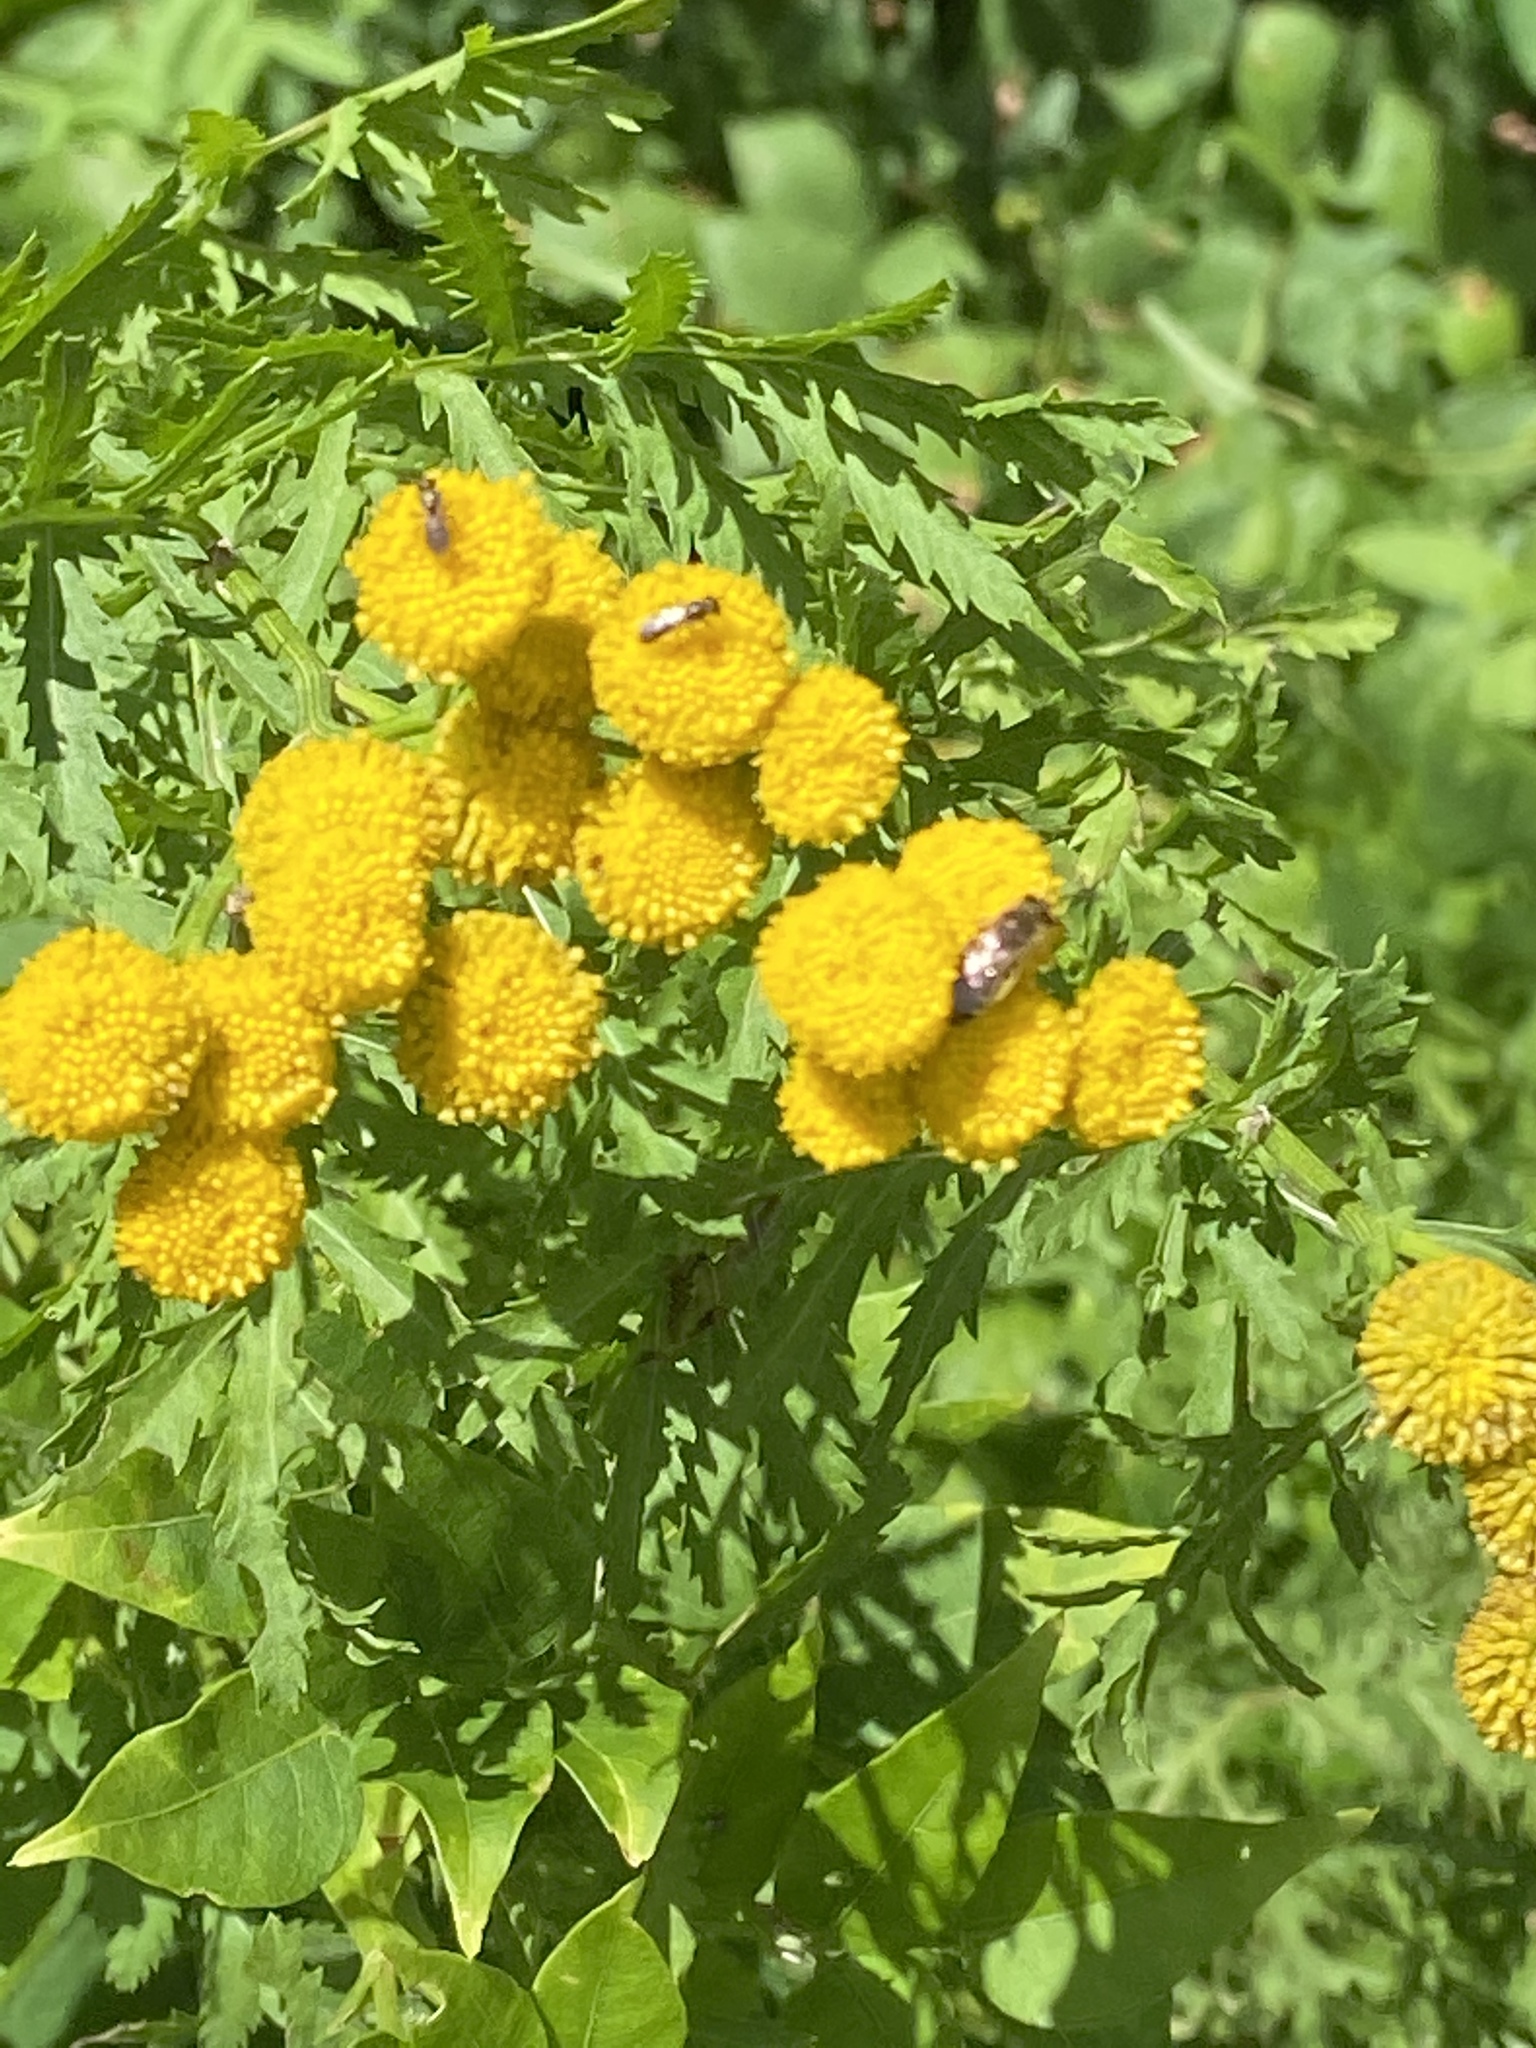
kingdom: Plantae
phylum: Tracheophyta
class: Magnoliopsida
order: Asterales
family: Asteraceae
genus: Tanacetum
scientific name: Tanacetum vulgare
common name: Common tansy
